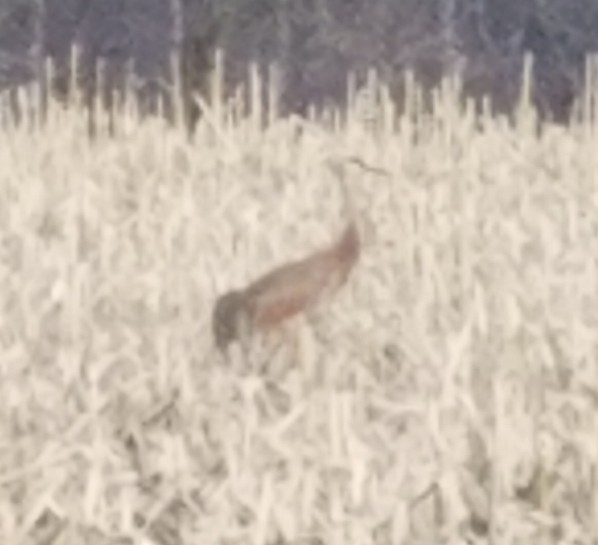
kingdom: Animalia
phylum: Chordata
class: Aves
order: Gruiformes
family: Gruidae
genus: Grus
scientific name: Grus canadensis
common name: Sandhill crane
